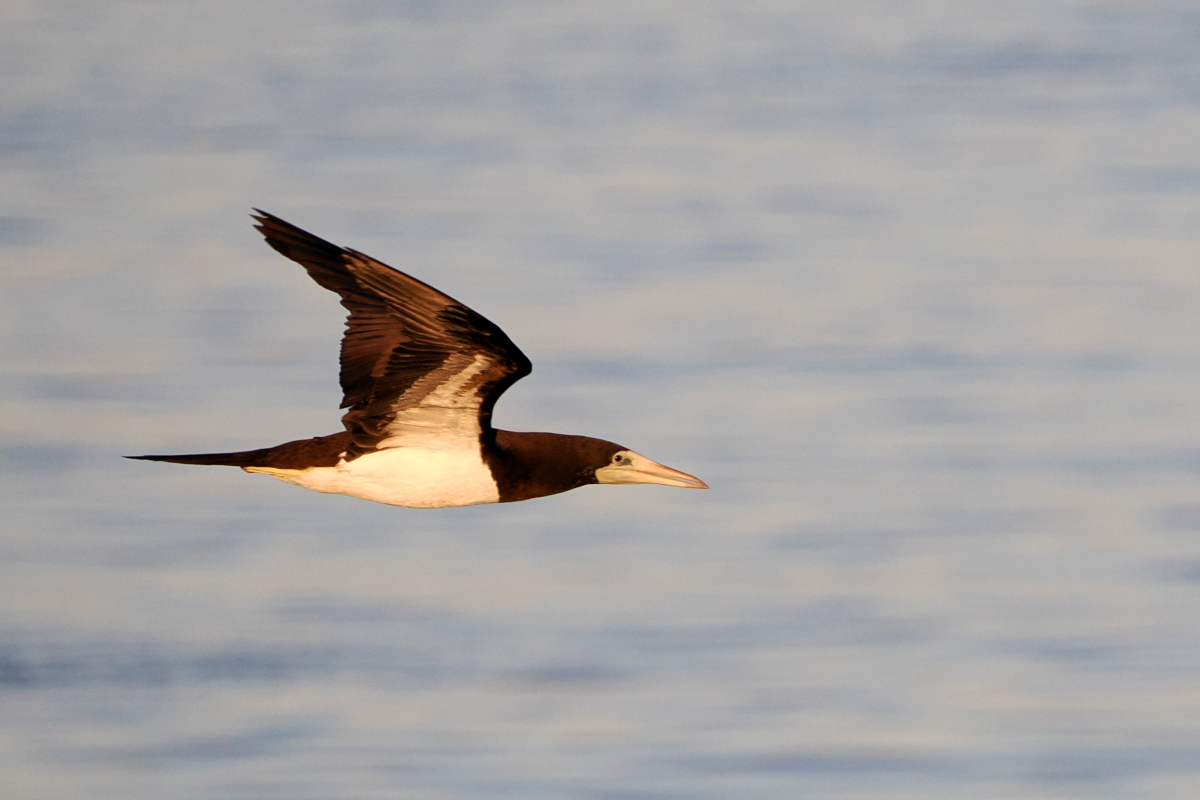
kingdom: Animalia
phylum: Chordata
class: Aves
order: Suliformes
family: Sulidae
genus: Sula
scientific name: Sula leucogaster
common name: Brown booby
